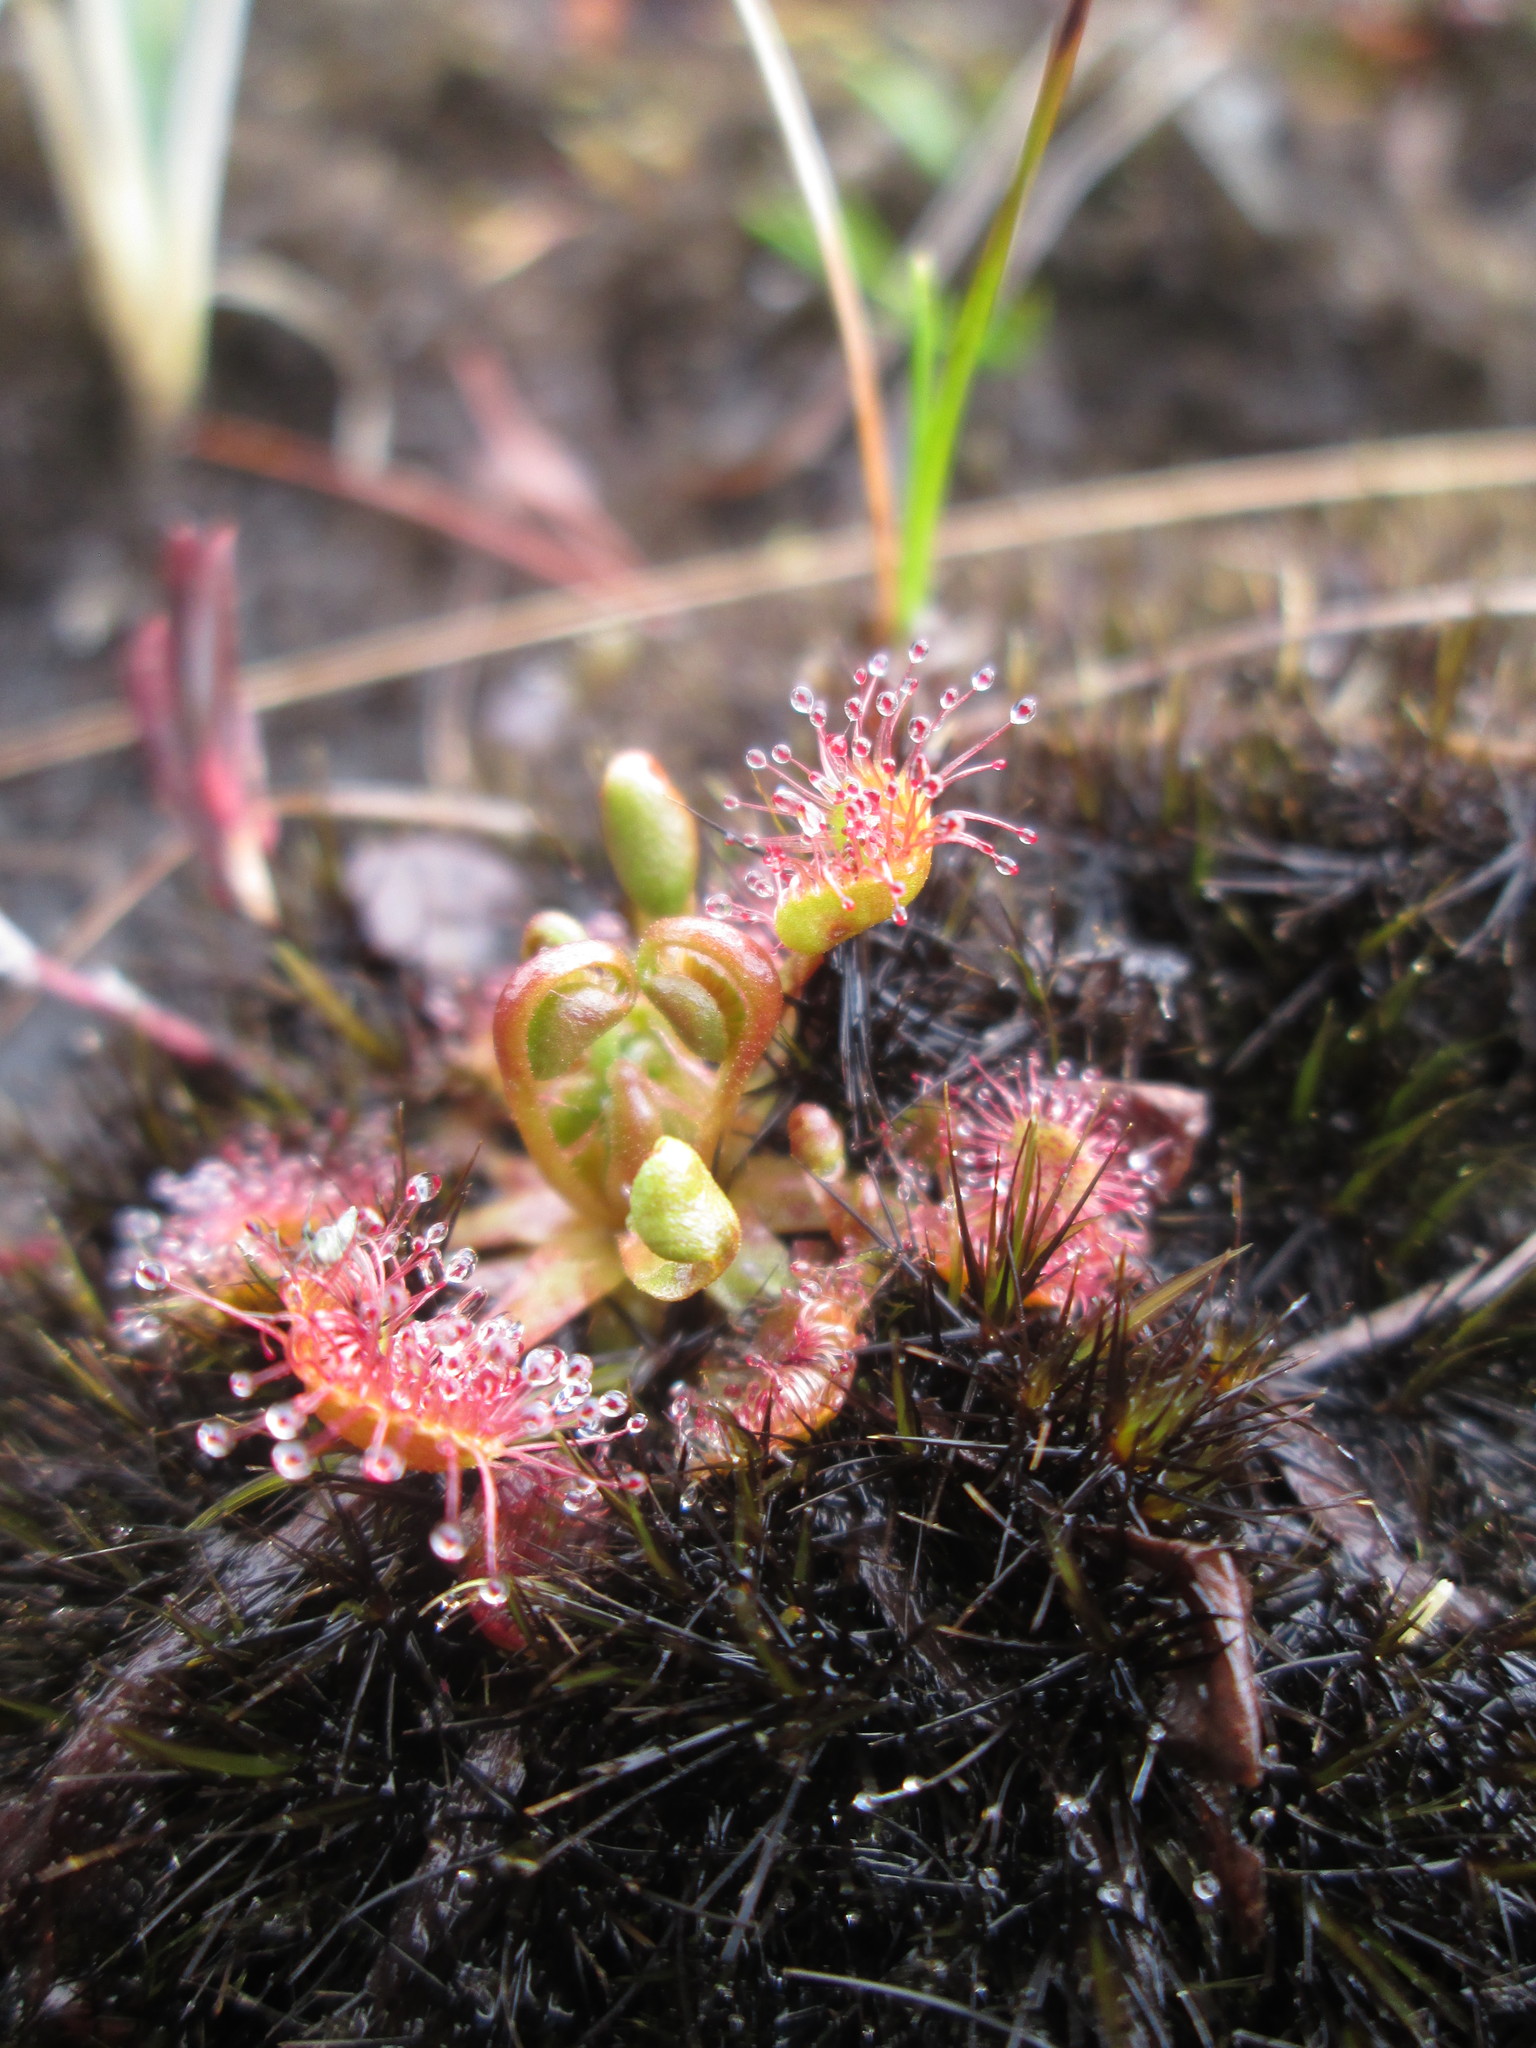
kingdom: Plantae
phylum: Tracheophyta
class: Magnoliopsida
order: Caryophyllales
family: Droseraceae
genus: Drosera
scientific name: Drosera rotundifolia
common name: Round-leaved sundew
